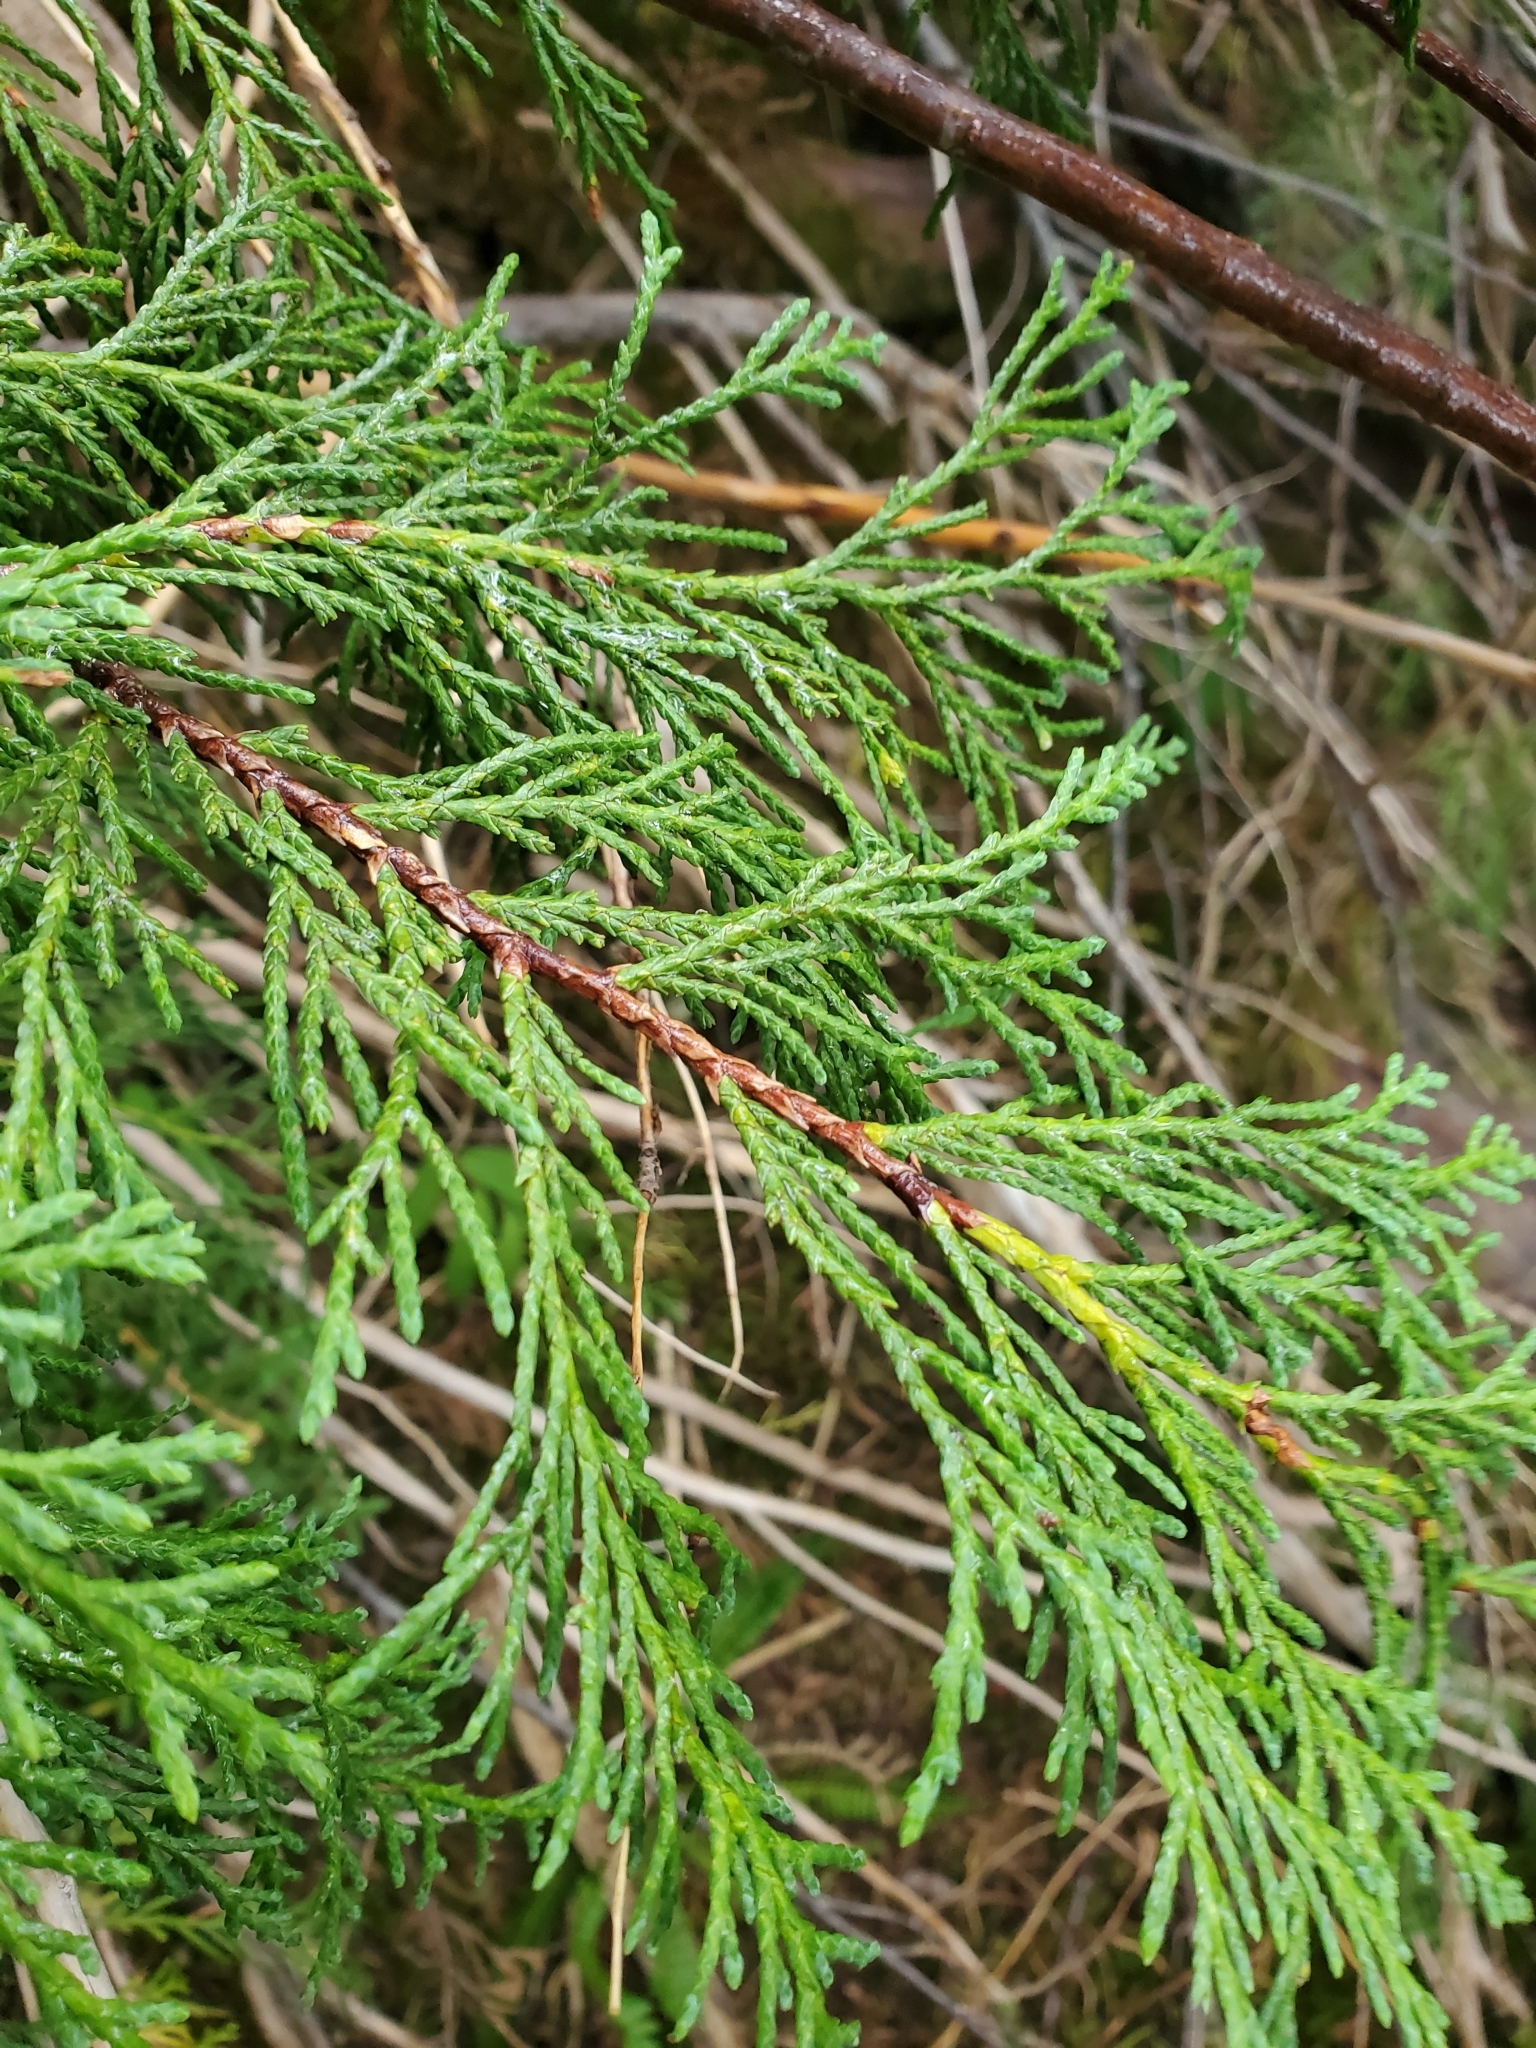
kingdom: Plantae
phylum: Tracheophyta
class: Pinopsida
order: Pinales
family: Cupressaceae
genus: Xanthocyparis
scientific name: Xanthocyparis nootkatensis
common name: Nootka cypress
